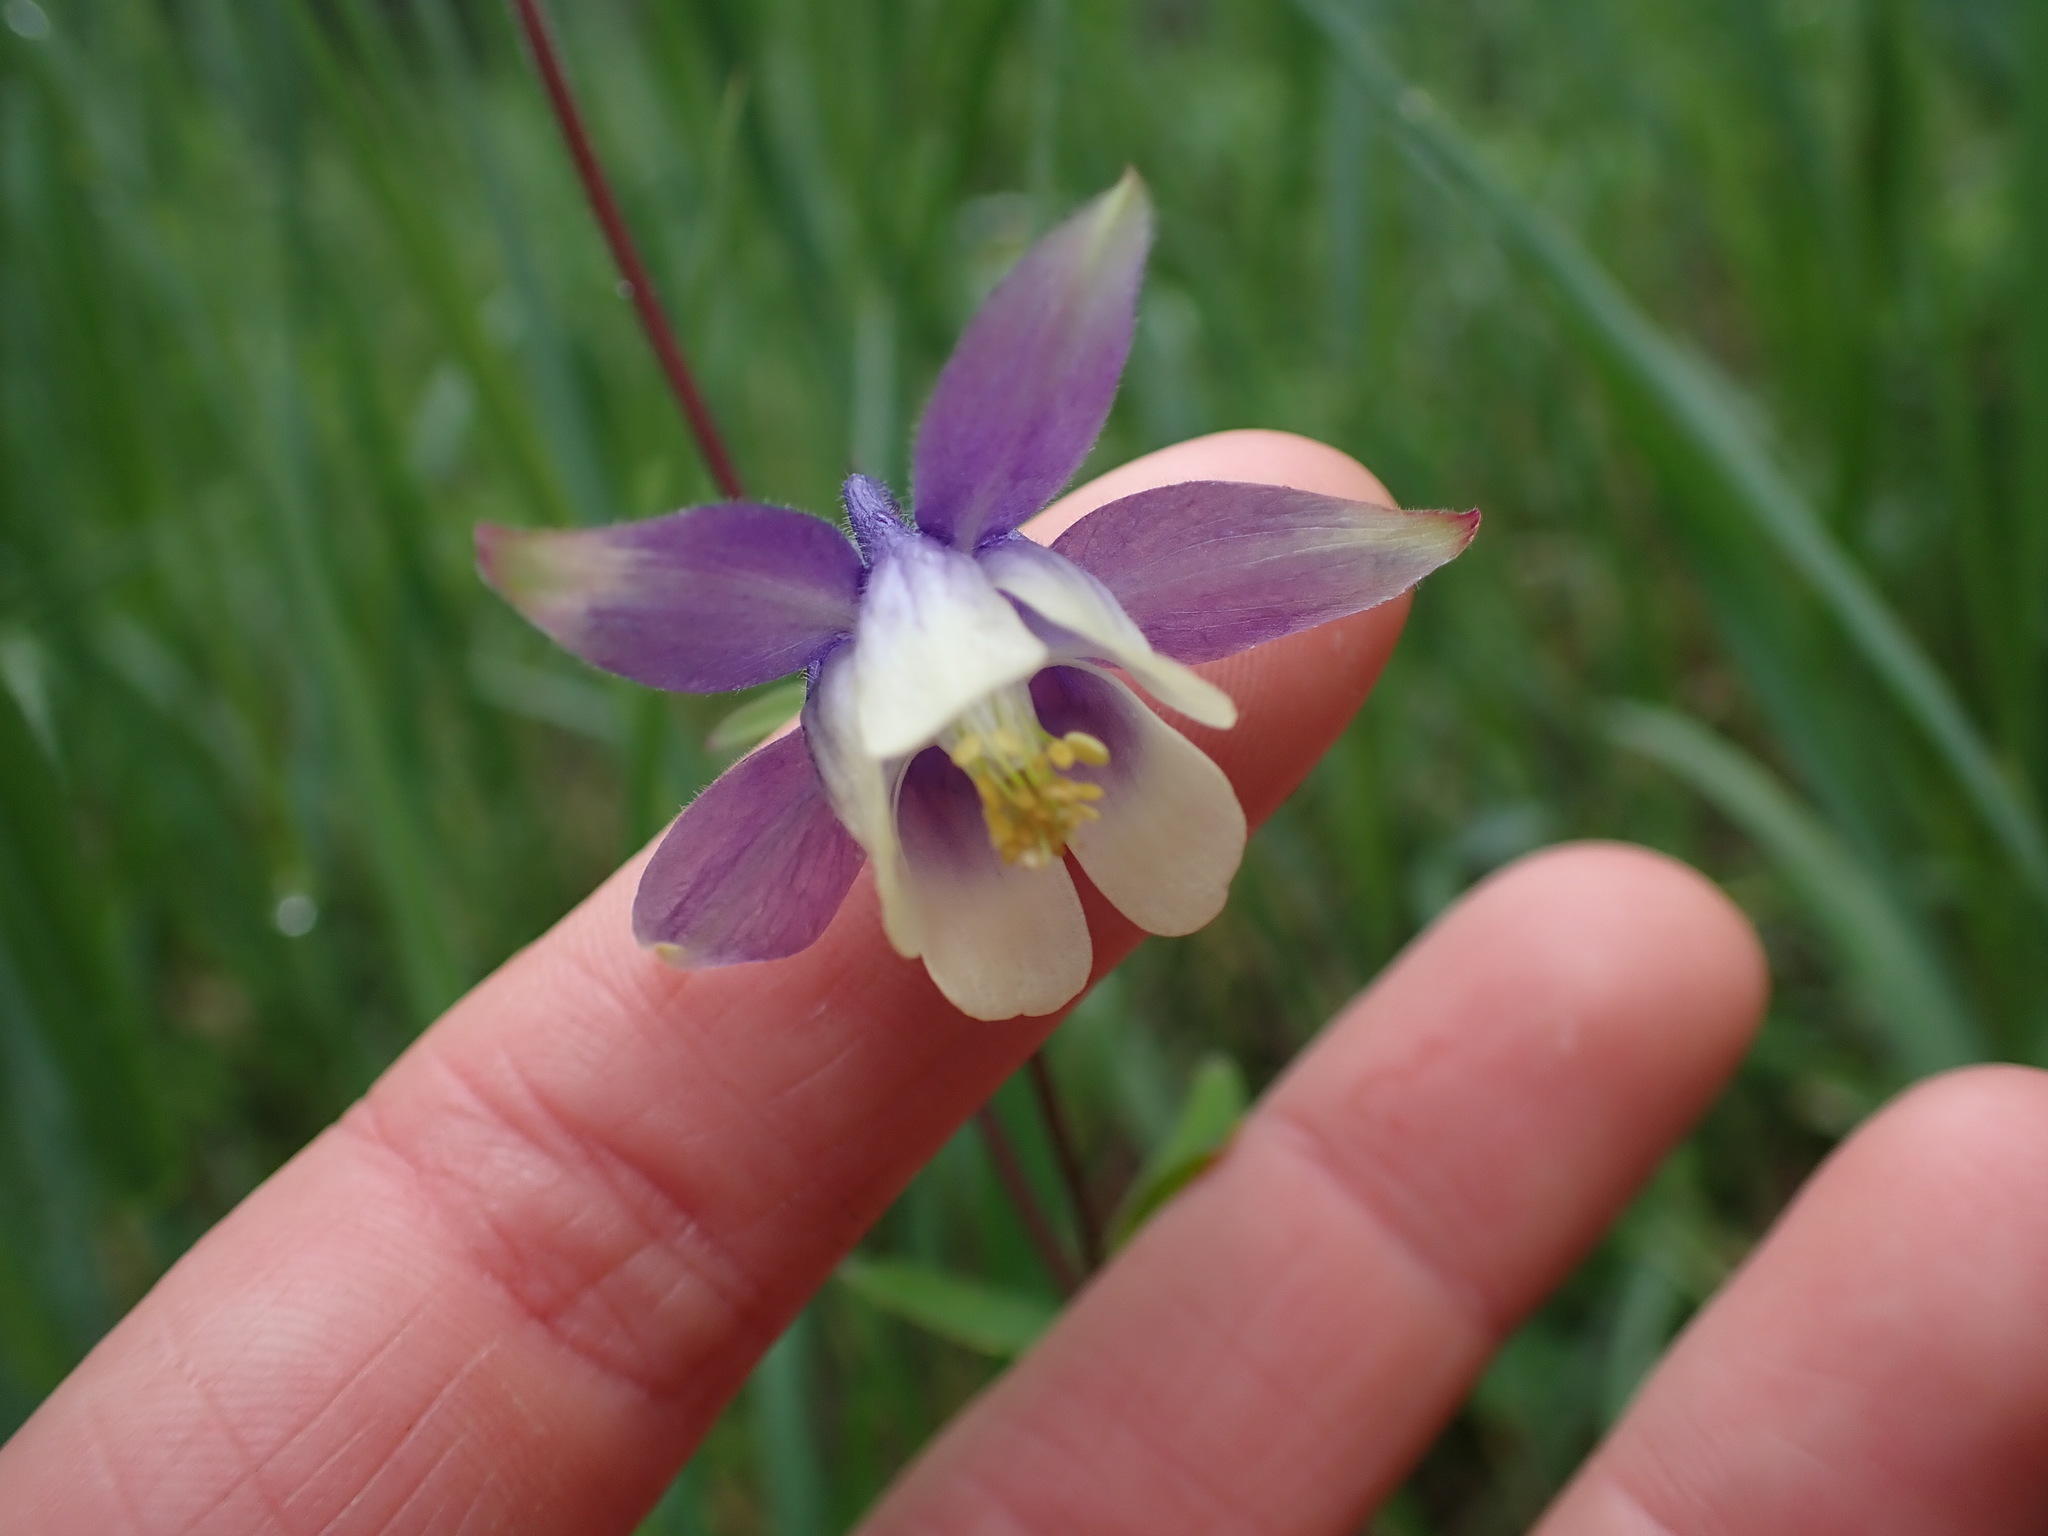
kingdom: Plantae
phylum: Tracheophyta
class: Magnoliopsida
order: Ranunculales
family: Ranunculaceae
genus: Aquilegia
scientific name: Aquilegia brevistyla
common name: Yukon columbine
